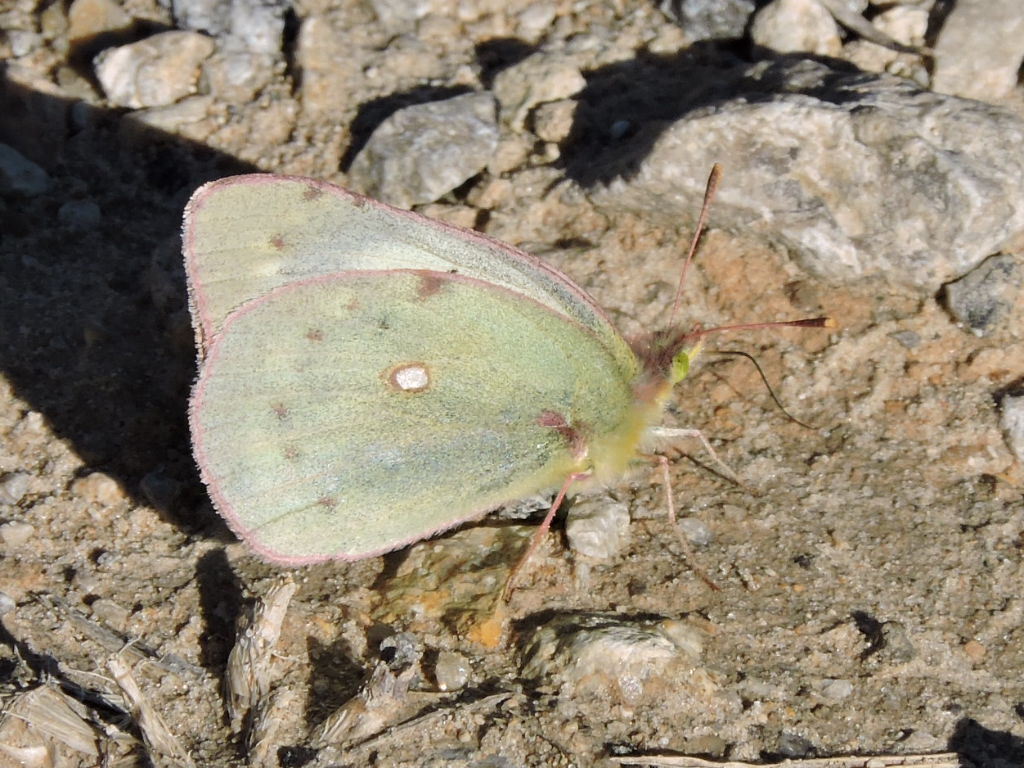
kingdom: Animalia
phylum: Arthropoda
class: Insecta
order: Lepidoptera
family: Pieridae
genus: Colias
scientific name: Colias eurytheme
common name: Alfalfa butterfly
